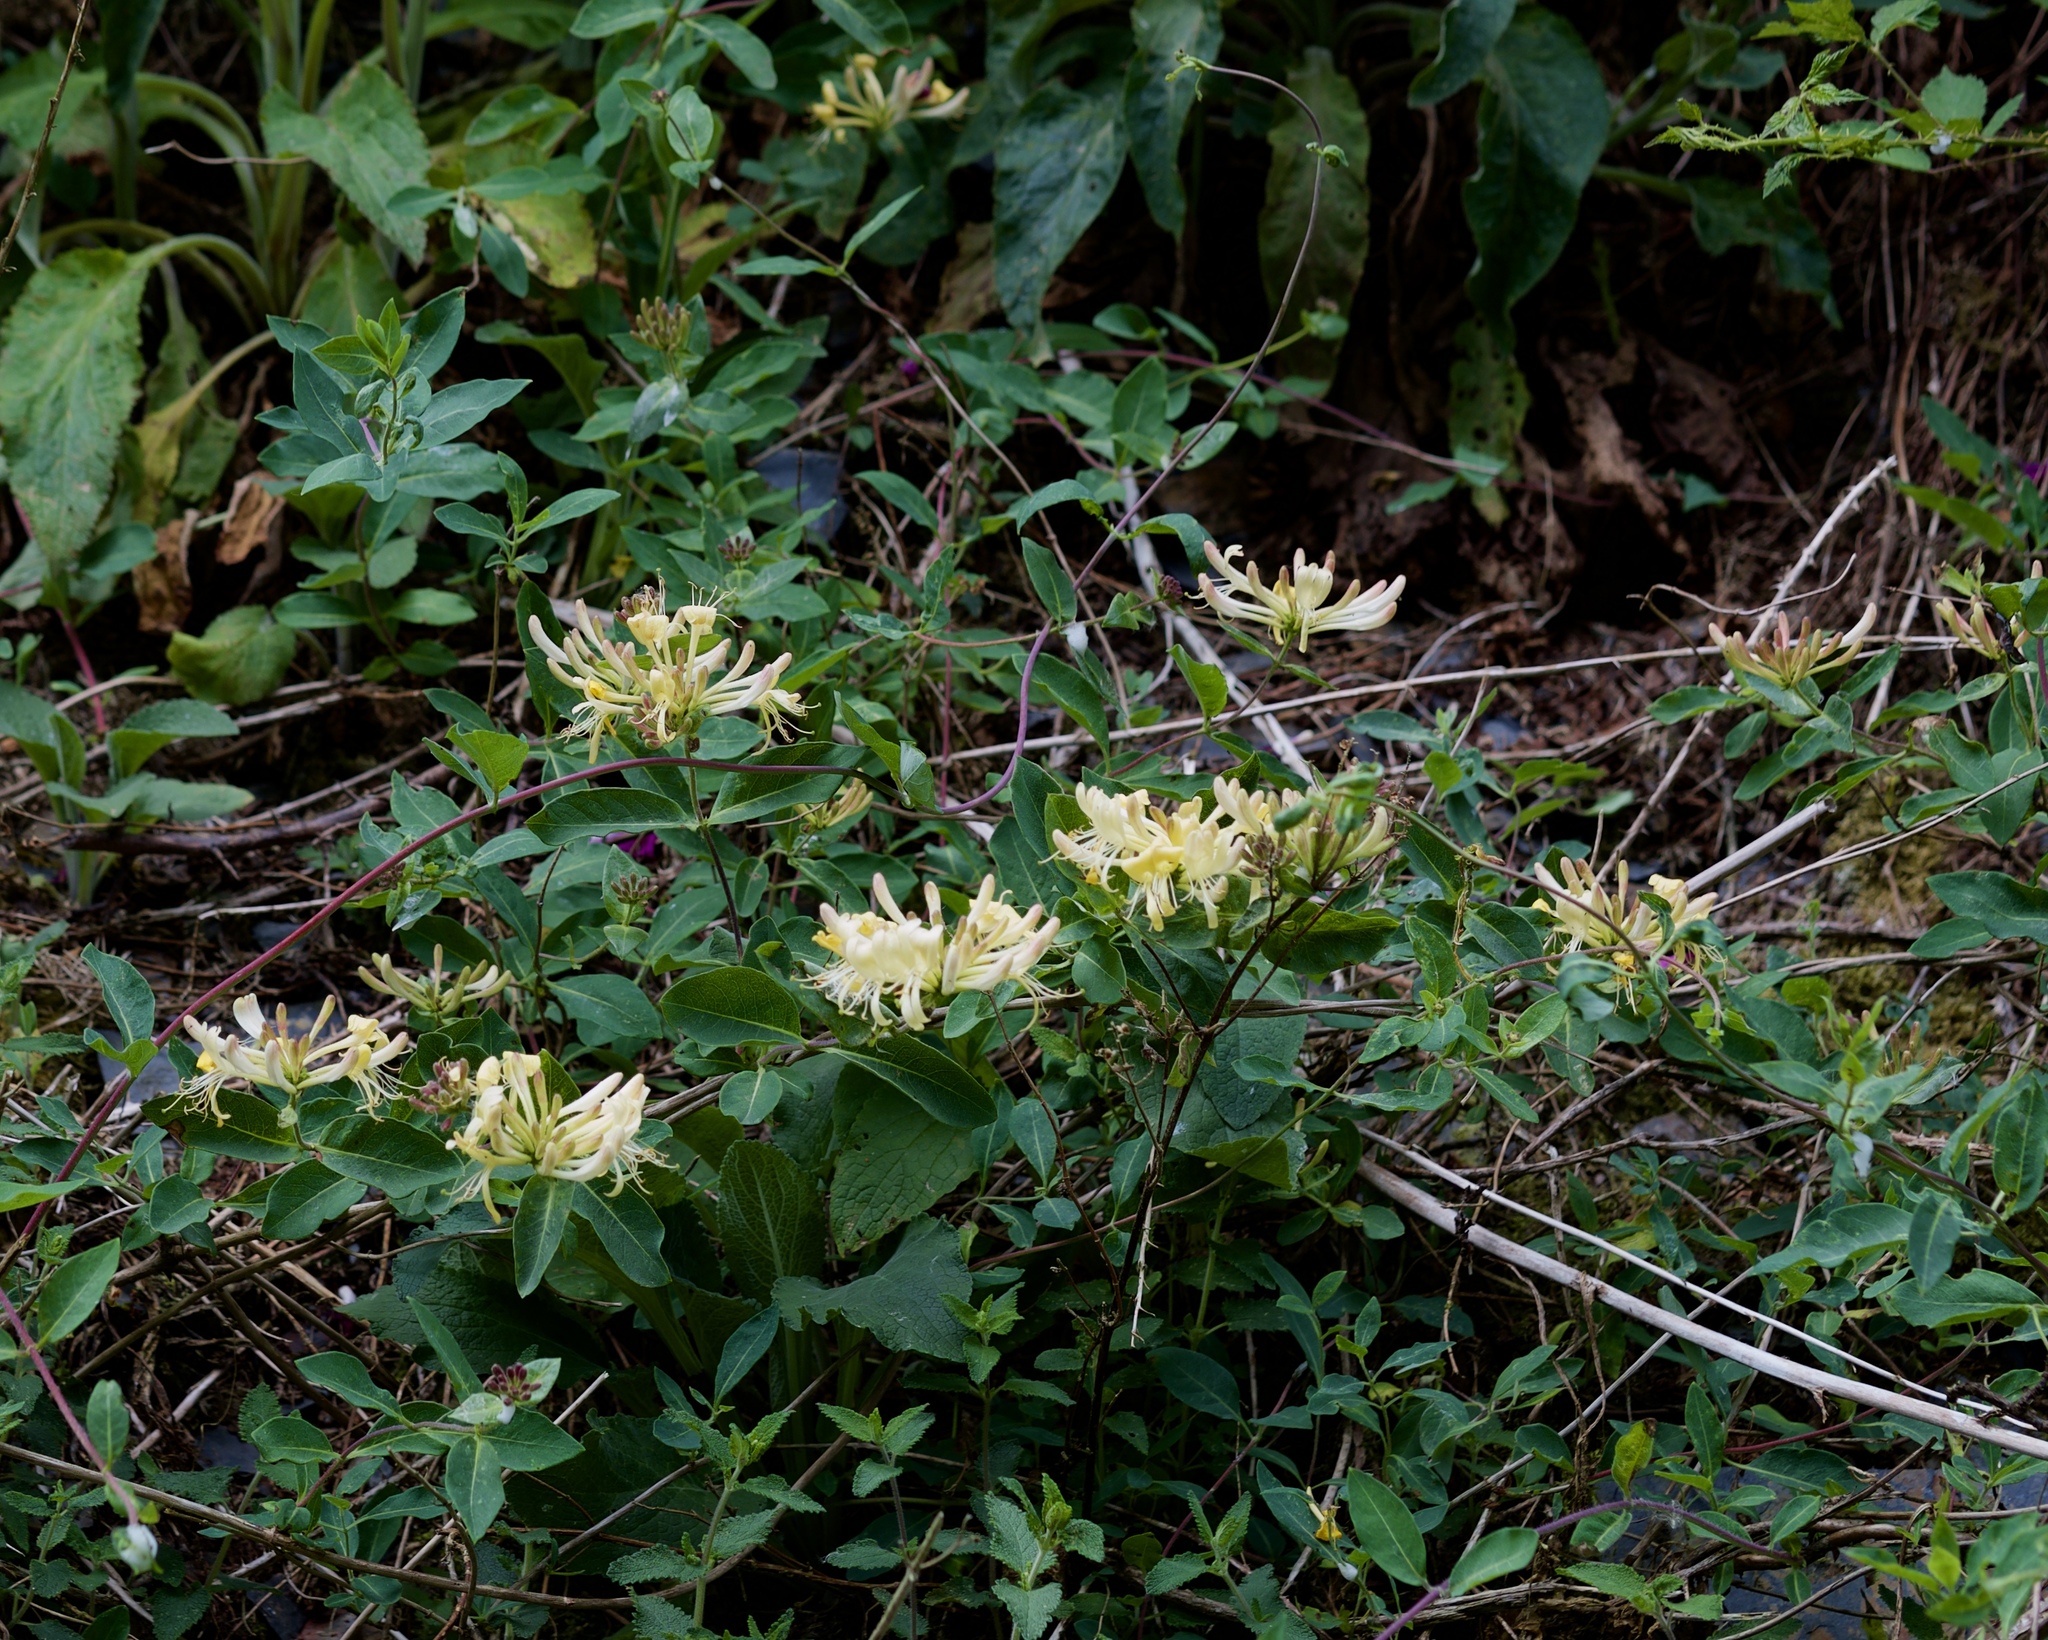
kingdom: Plantae
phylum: Tracheophyta
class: Magnoliopsida
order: Dipsacales
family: Caprifoliaceae
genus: Lonicera
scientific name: Lonicera periclymenum
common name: European honeysuckle
